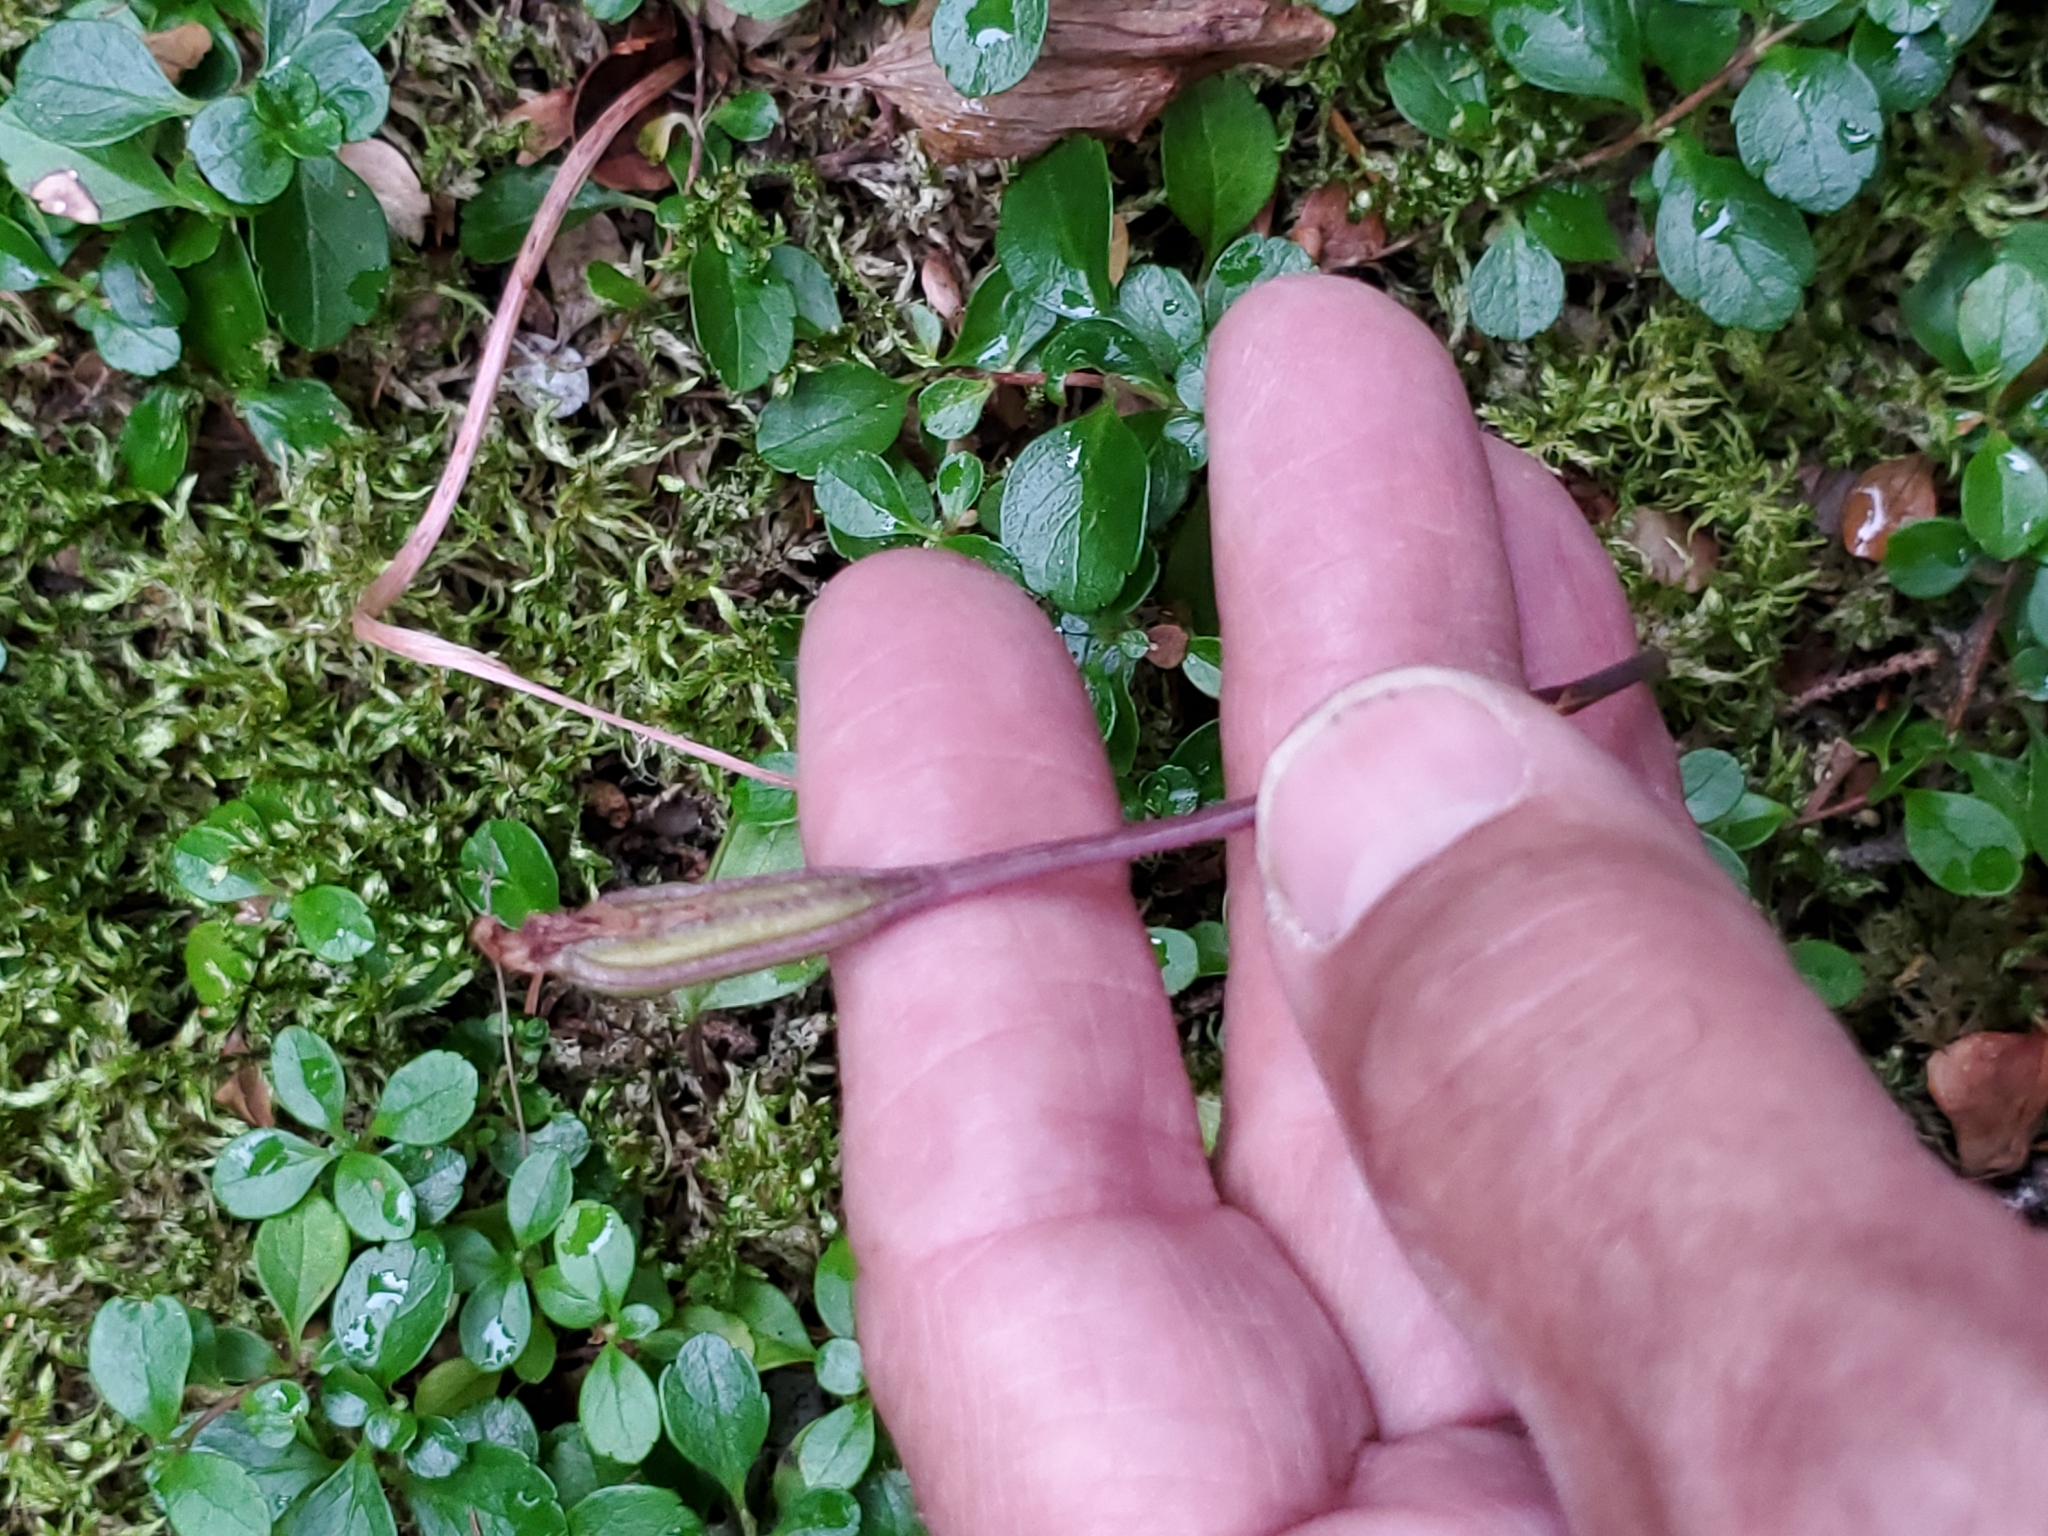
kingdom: Plantae
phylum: Tracheophyta
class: Liliopsida
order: Asparagales
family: Orchidaceae
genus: Calypso
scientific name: Calypso bulbosa
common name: Calypso
